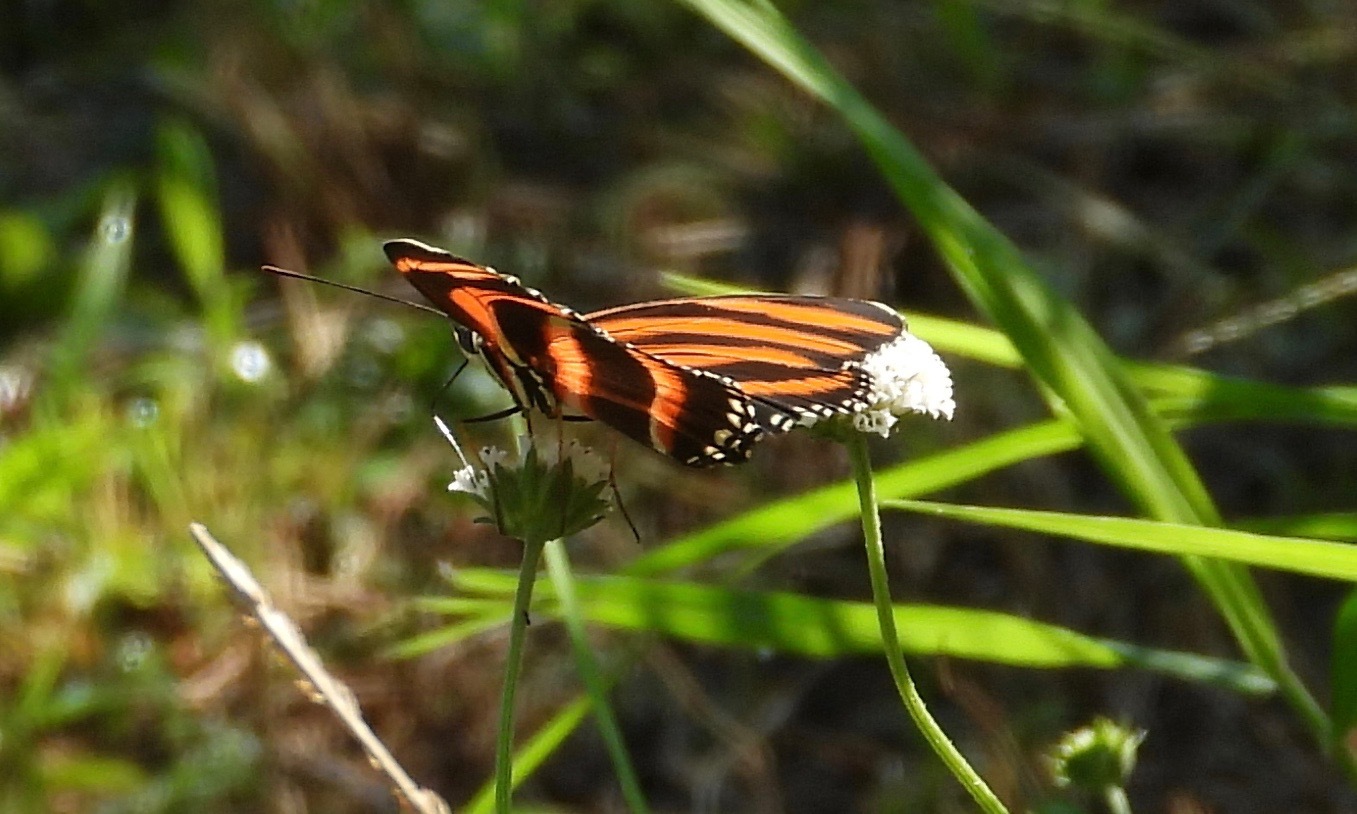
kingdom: Animalia
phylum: Arthropoda
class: Insecta
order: Lepidoptera
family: Nymphalidae
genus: Dryadula
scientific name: Dryadula phaetusa
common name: Banded orange heliconian
